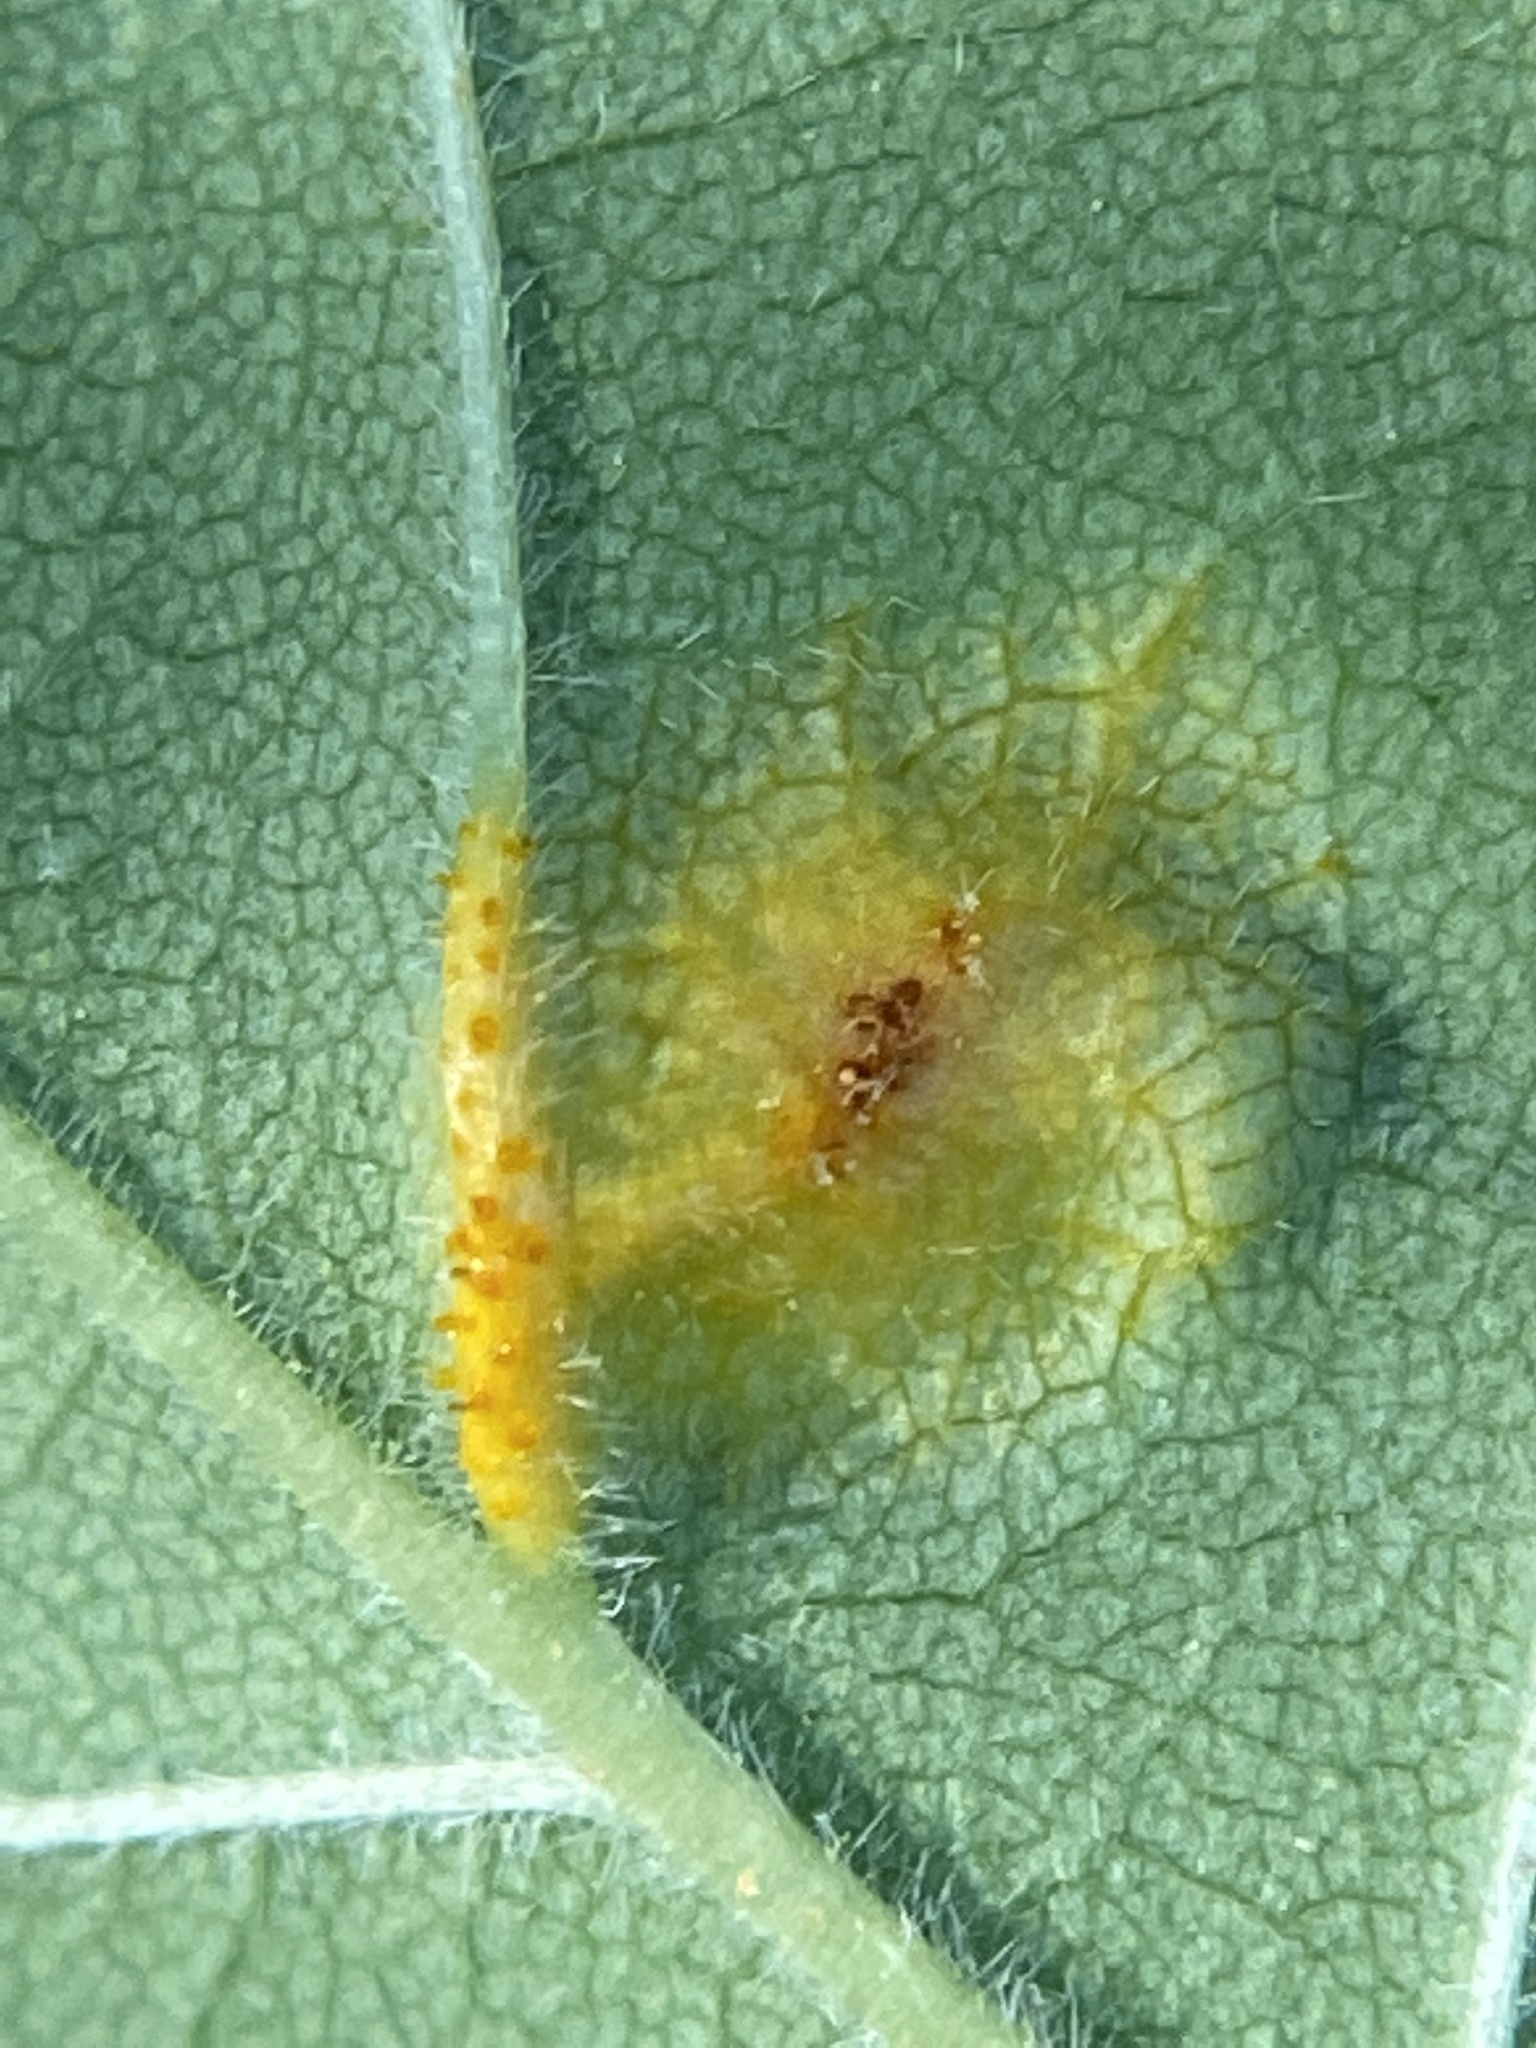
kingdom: Fungi
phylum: Basidiomycota
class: Pucciniomycetes
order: Pucciniales
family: Pucciniaceae
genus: Puccinia
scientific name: Puccinia sparganioidis
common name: Ash rust
